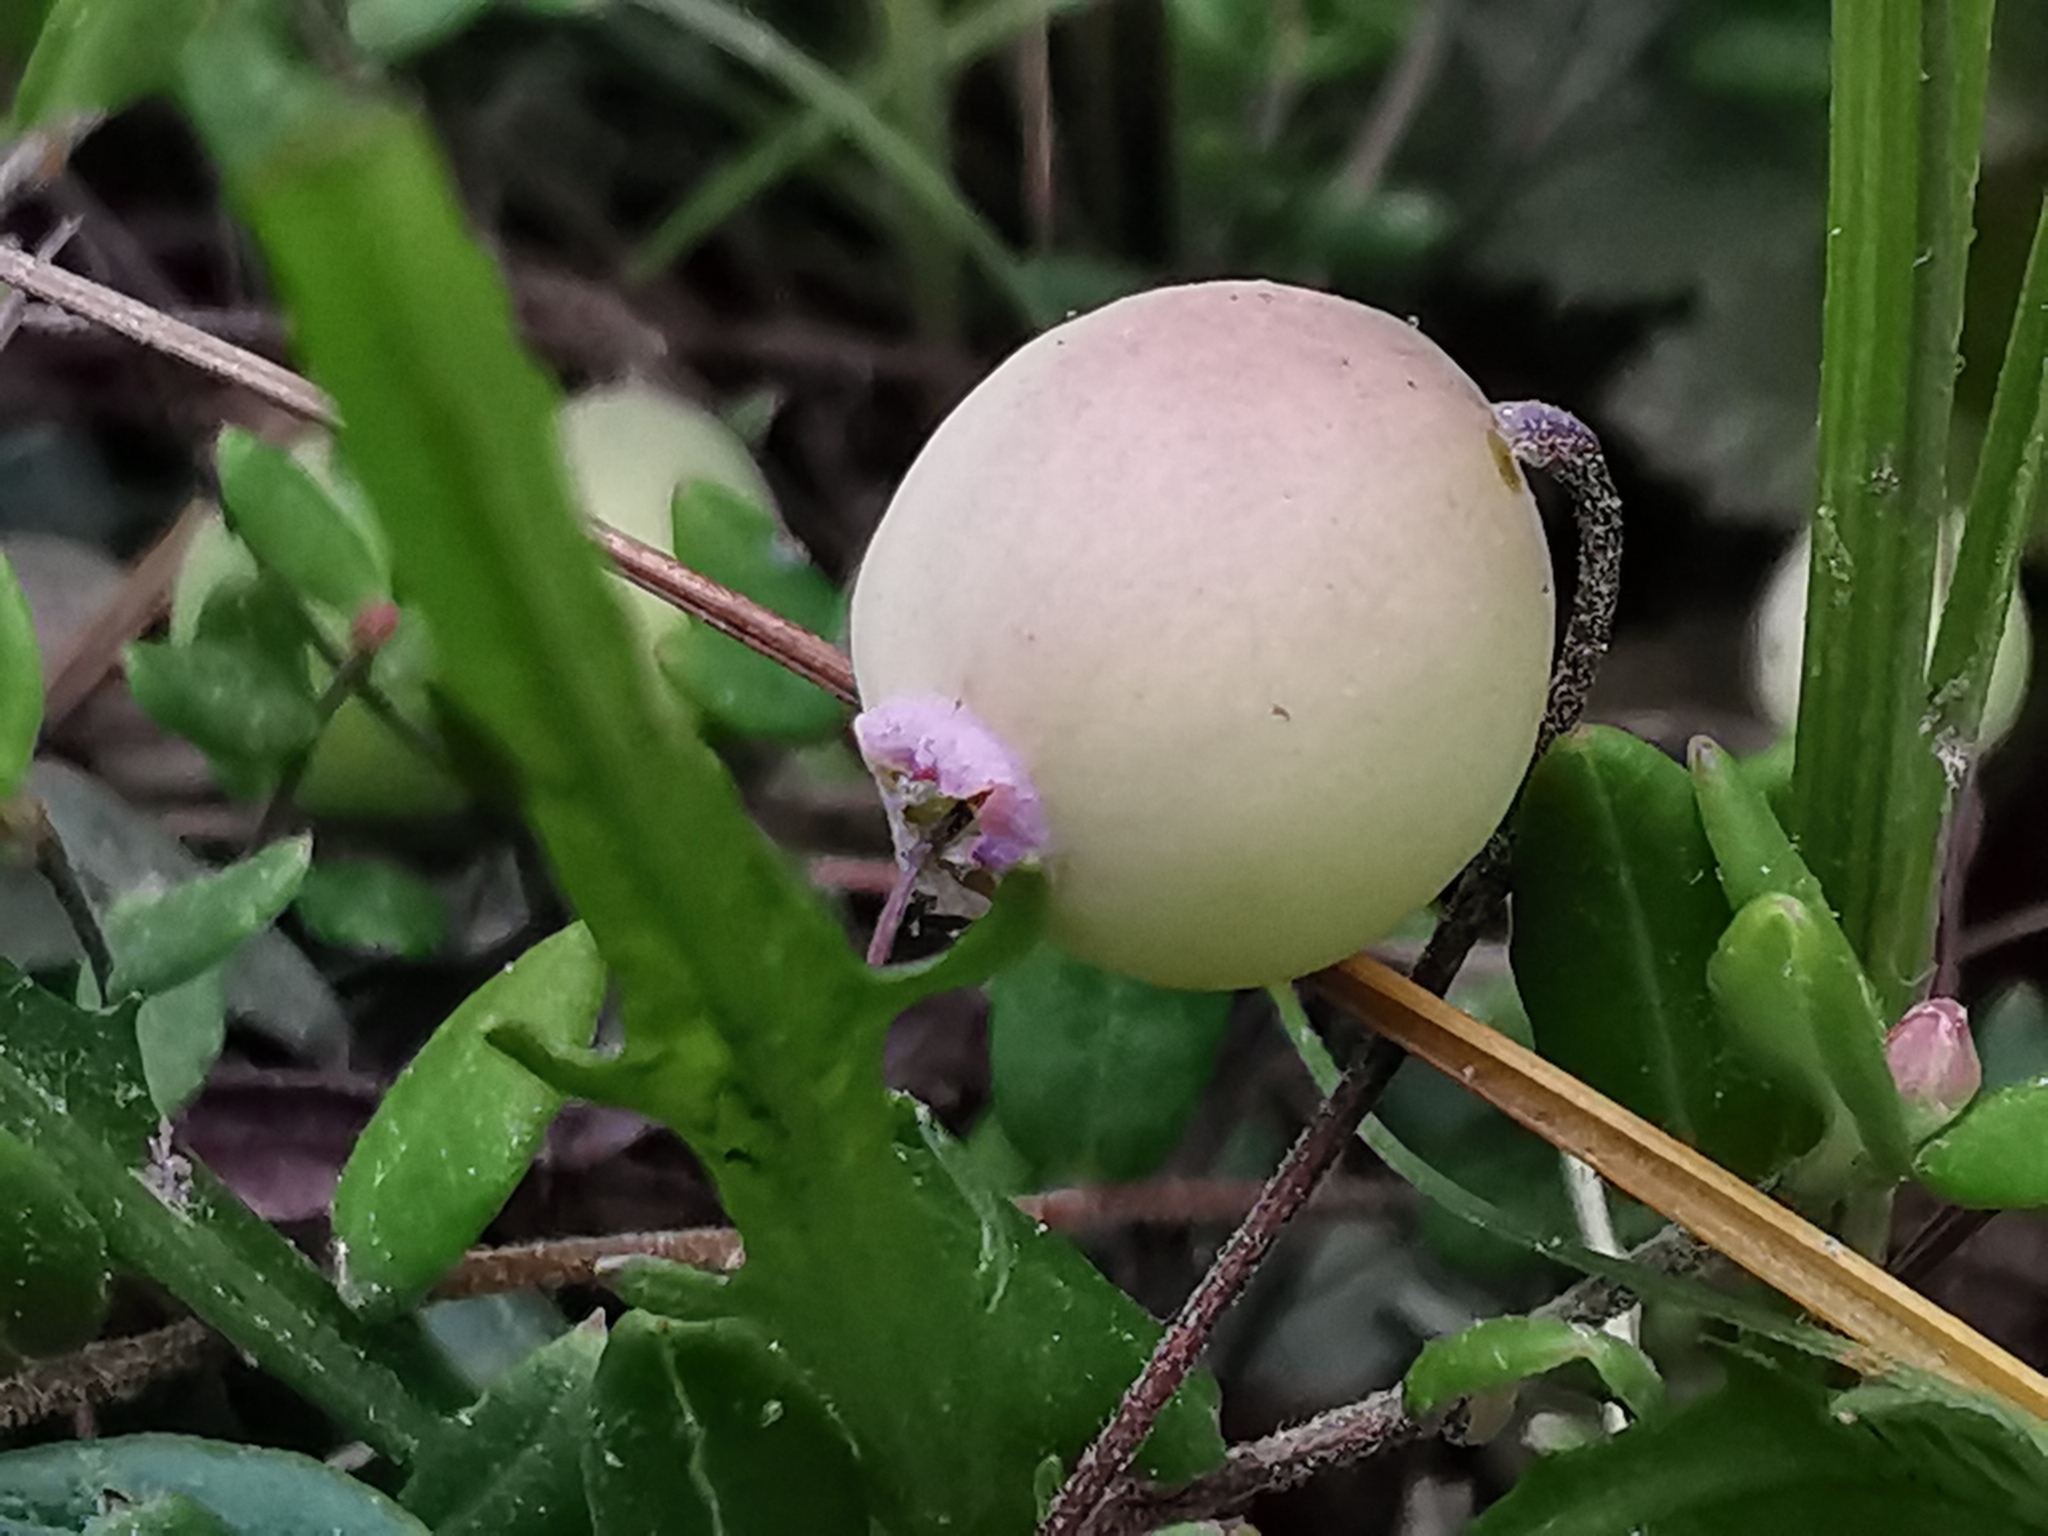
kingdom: Plantae
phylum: Tracheophyta
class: Magnoliopsida
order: Ericales
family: Ericaceae
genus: Vaccinium
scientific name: Vaccinium oxycoccos
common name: Cranberry
